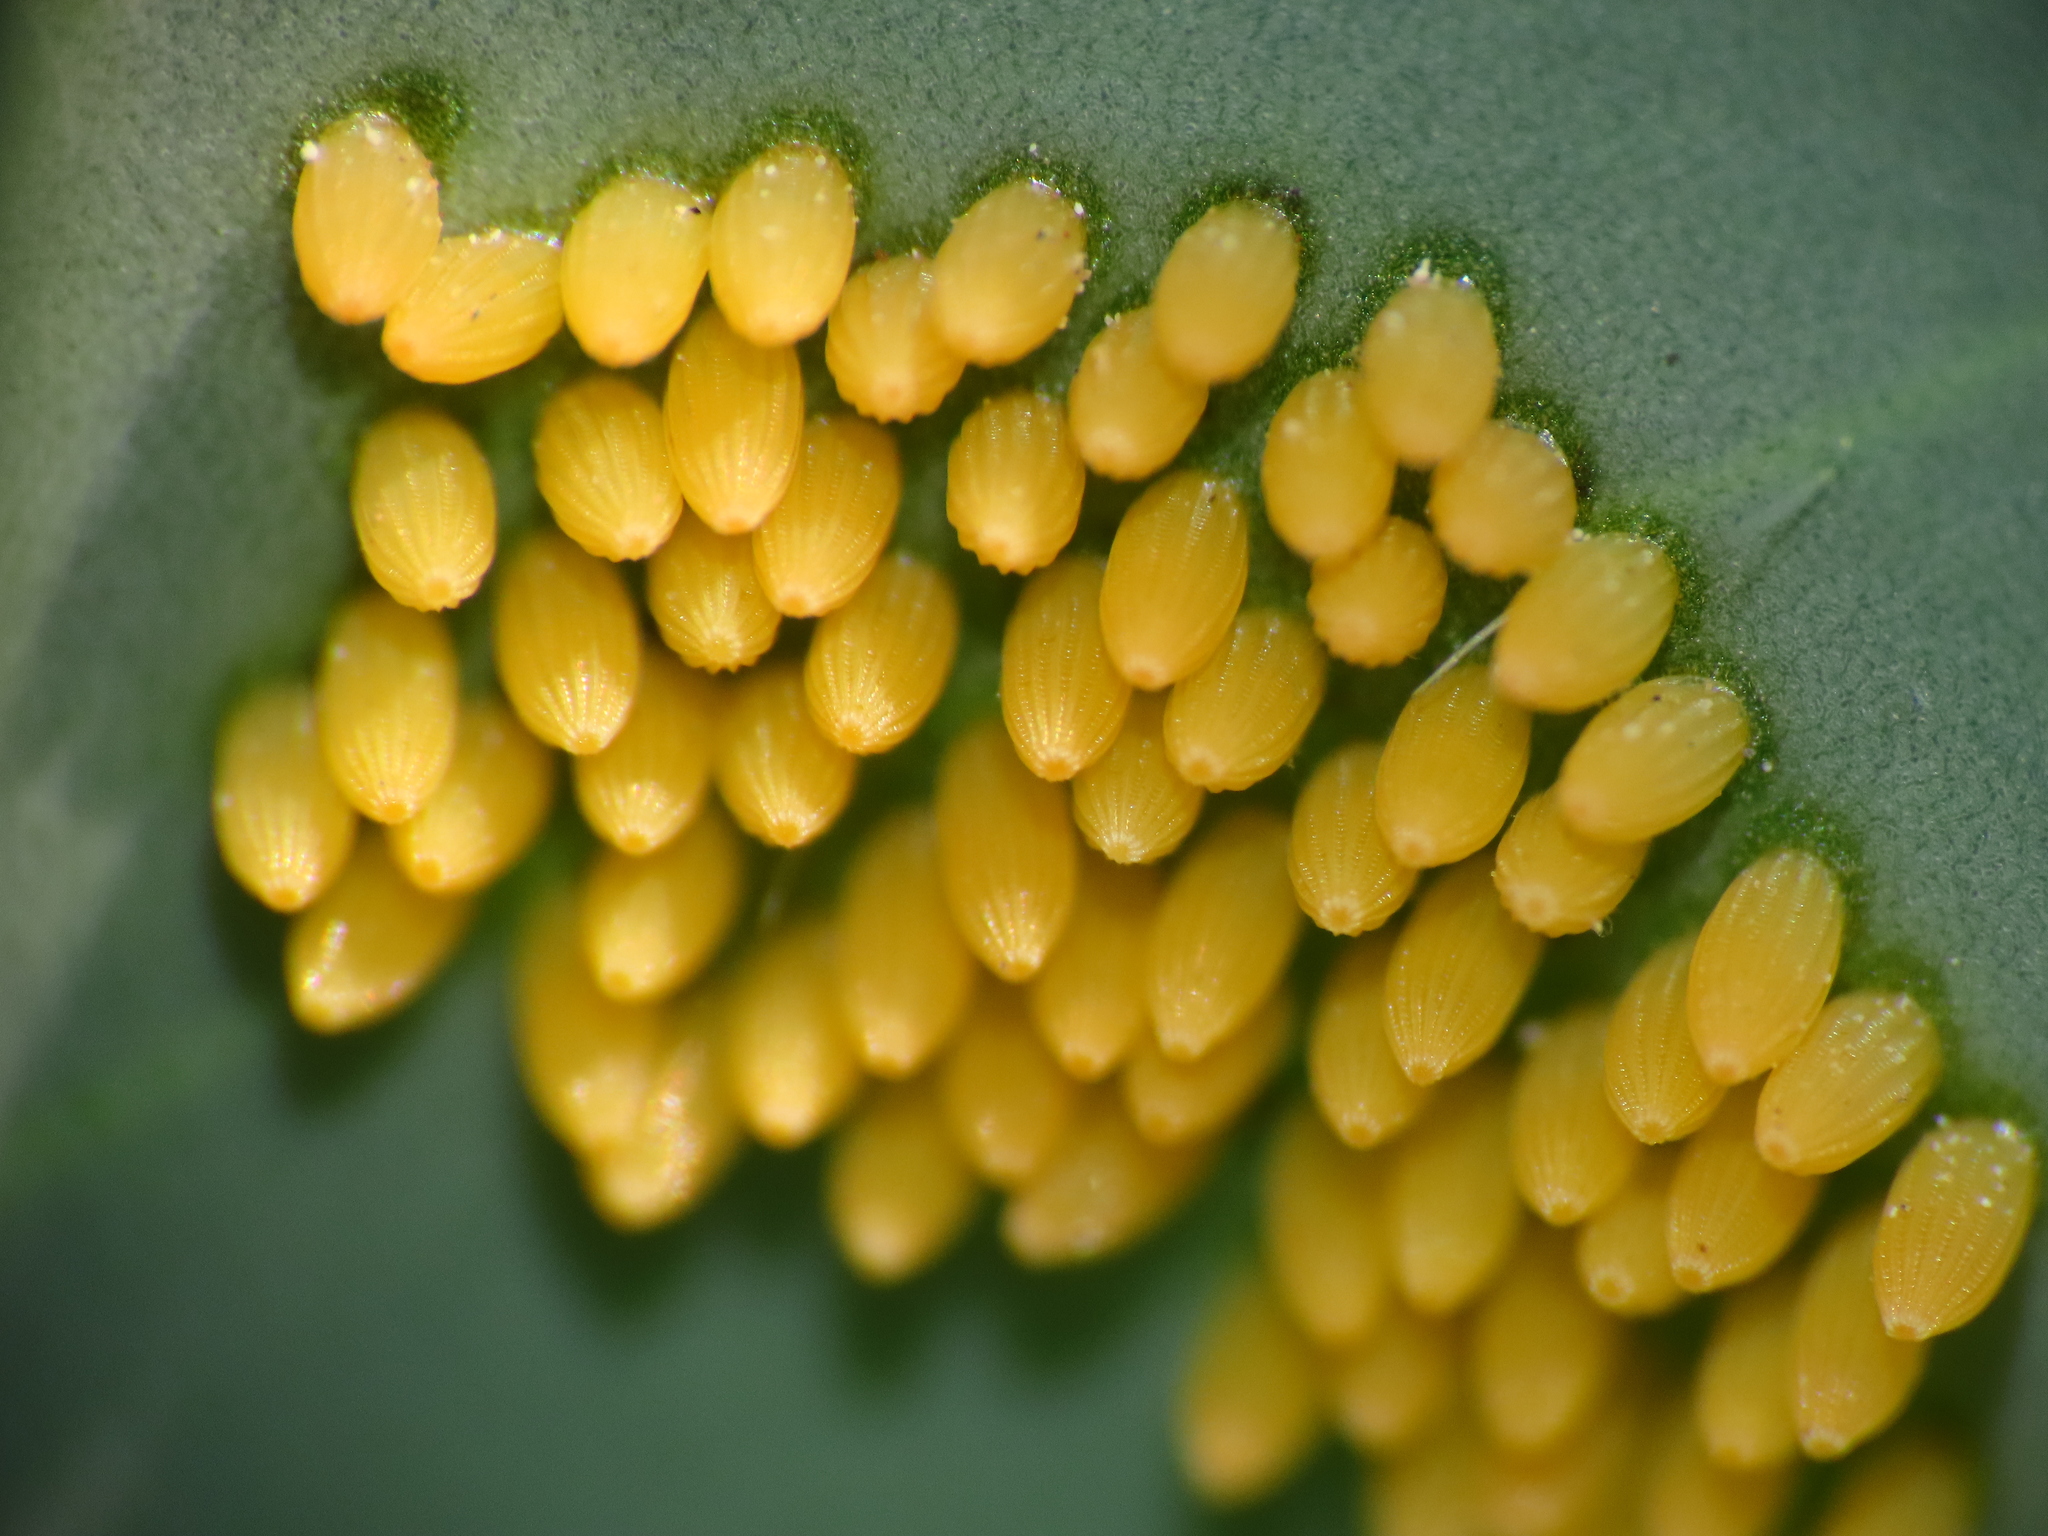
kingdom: Animalia
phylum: Arthropoda
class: Insecta
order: Lepidoptera
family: Pieridae
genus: Pieris
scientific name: Pieris brassicae
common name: Large white
